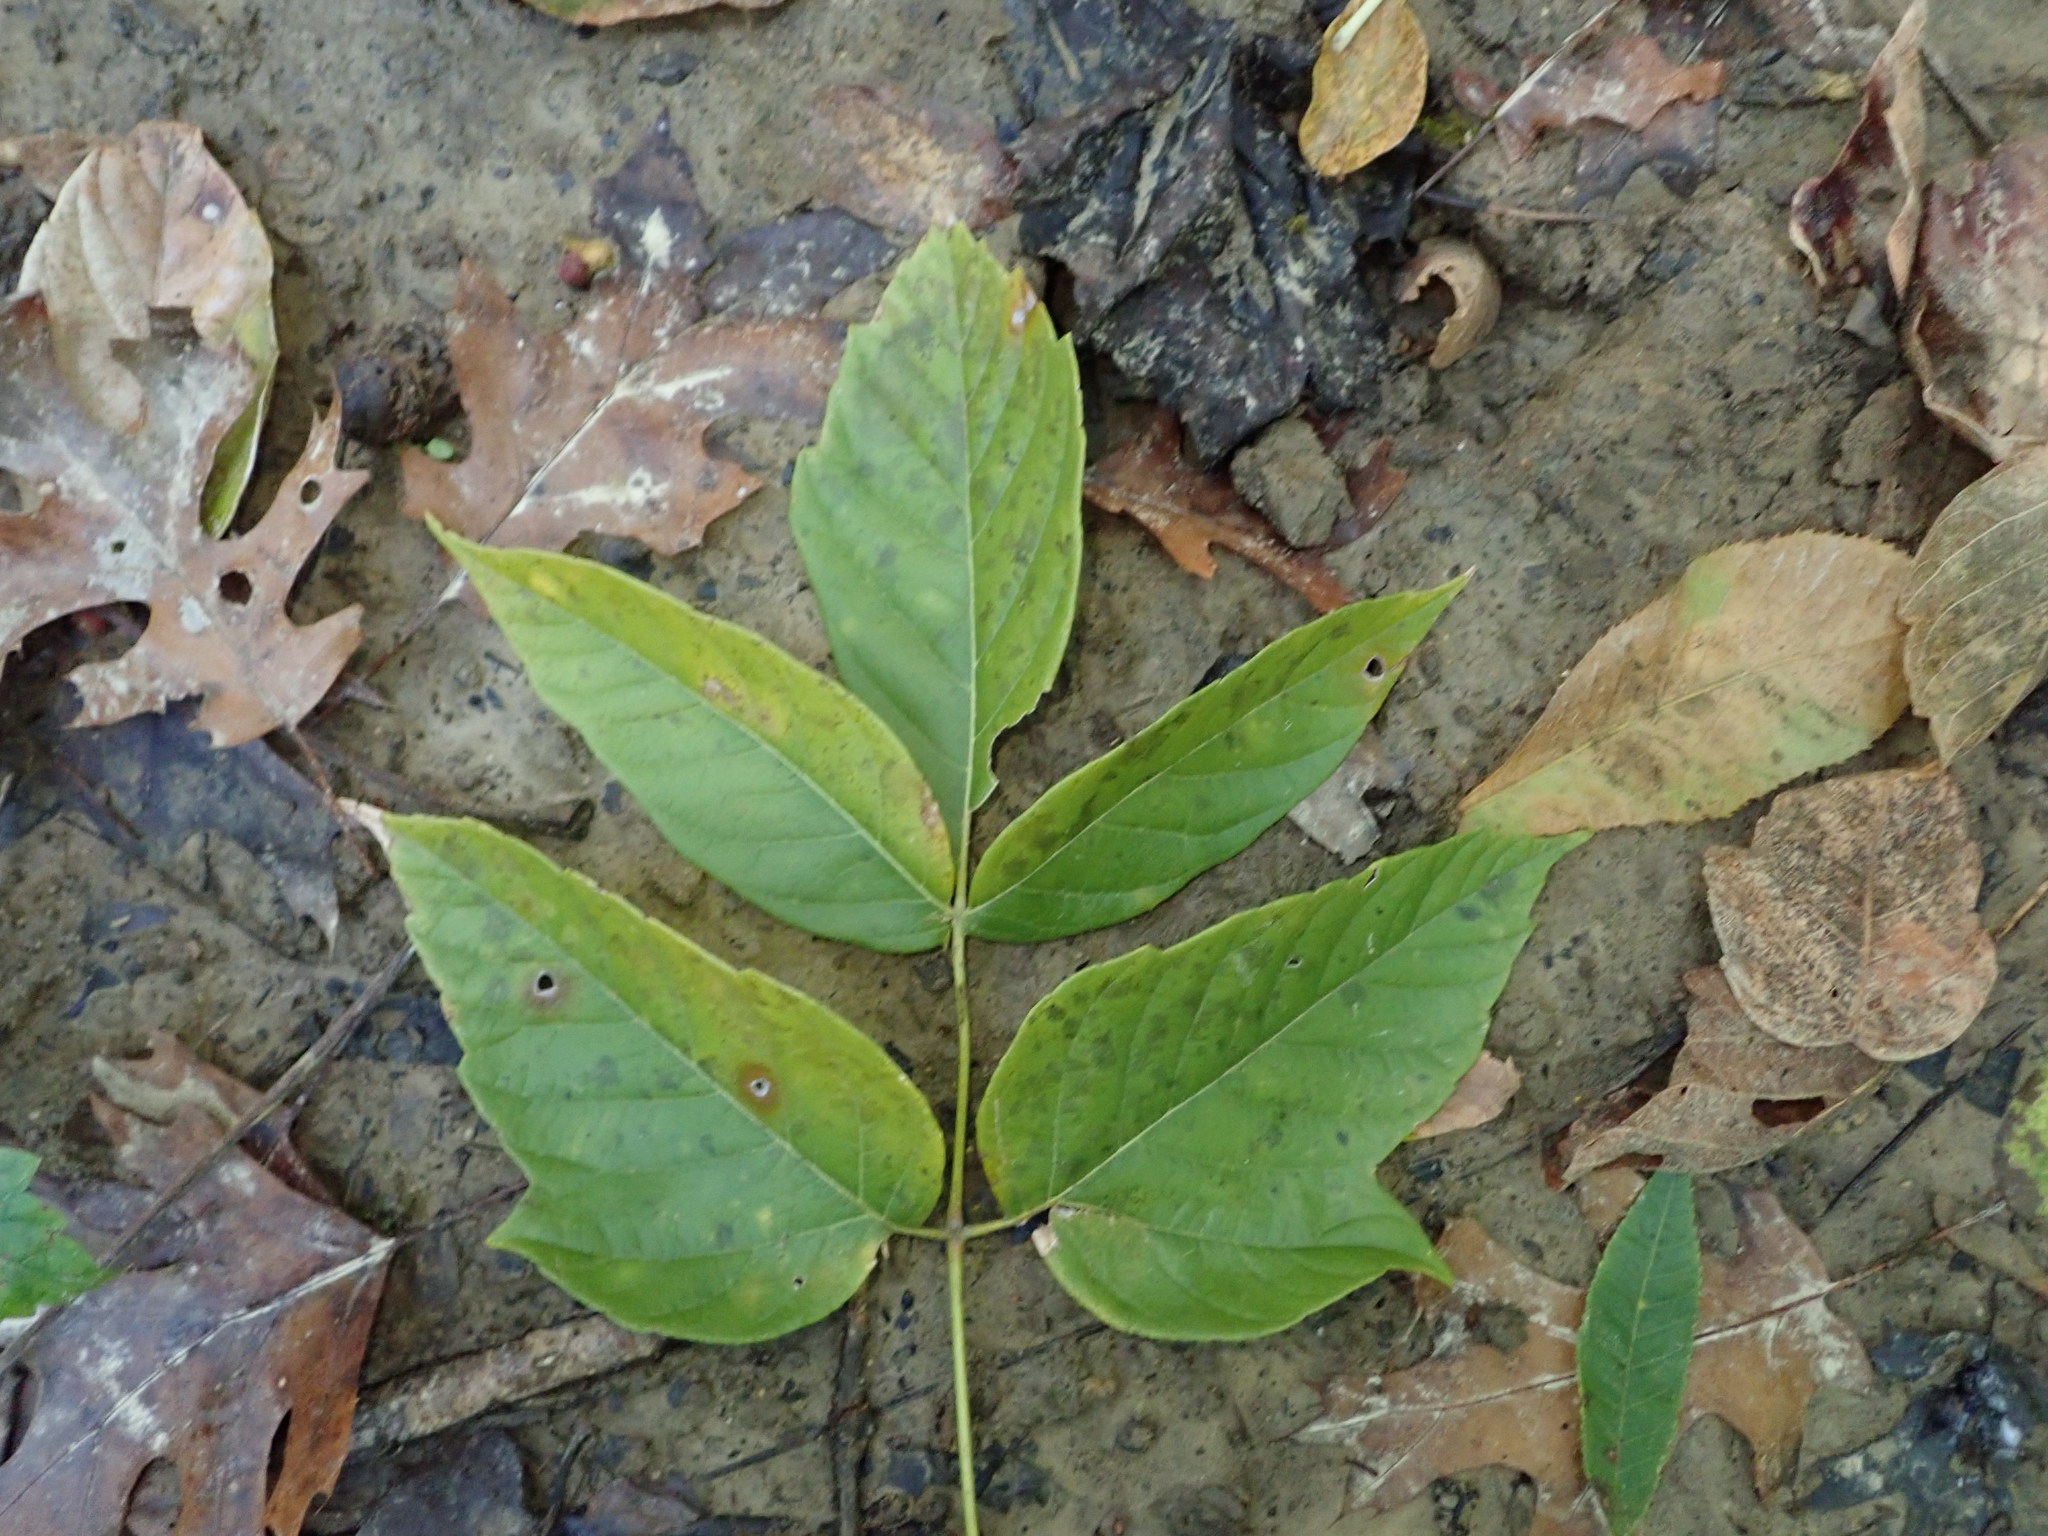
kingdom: Plantae
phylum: Tracheophyta
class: Magnoliopsida
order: Sapindales
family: Sapindaceae
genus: Acer
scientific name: Acer negundo
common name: Ashleaf maple
